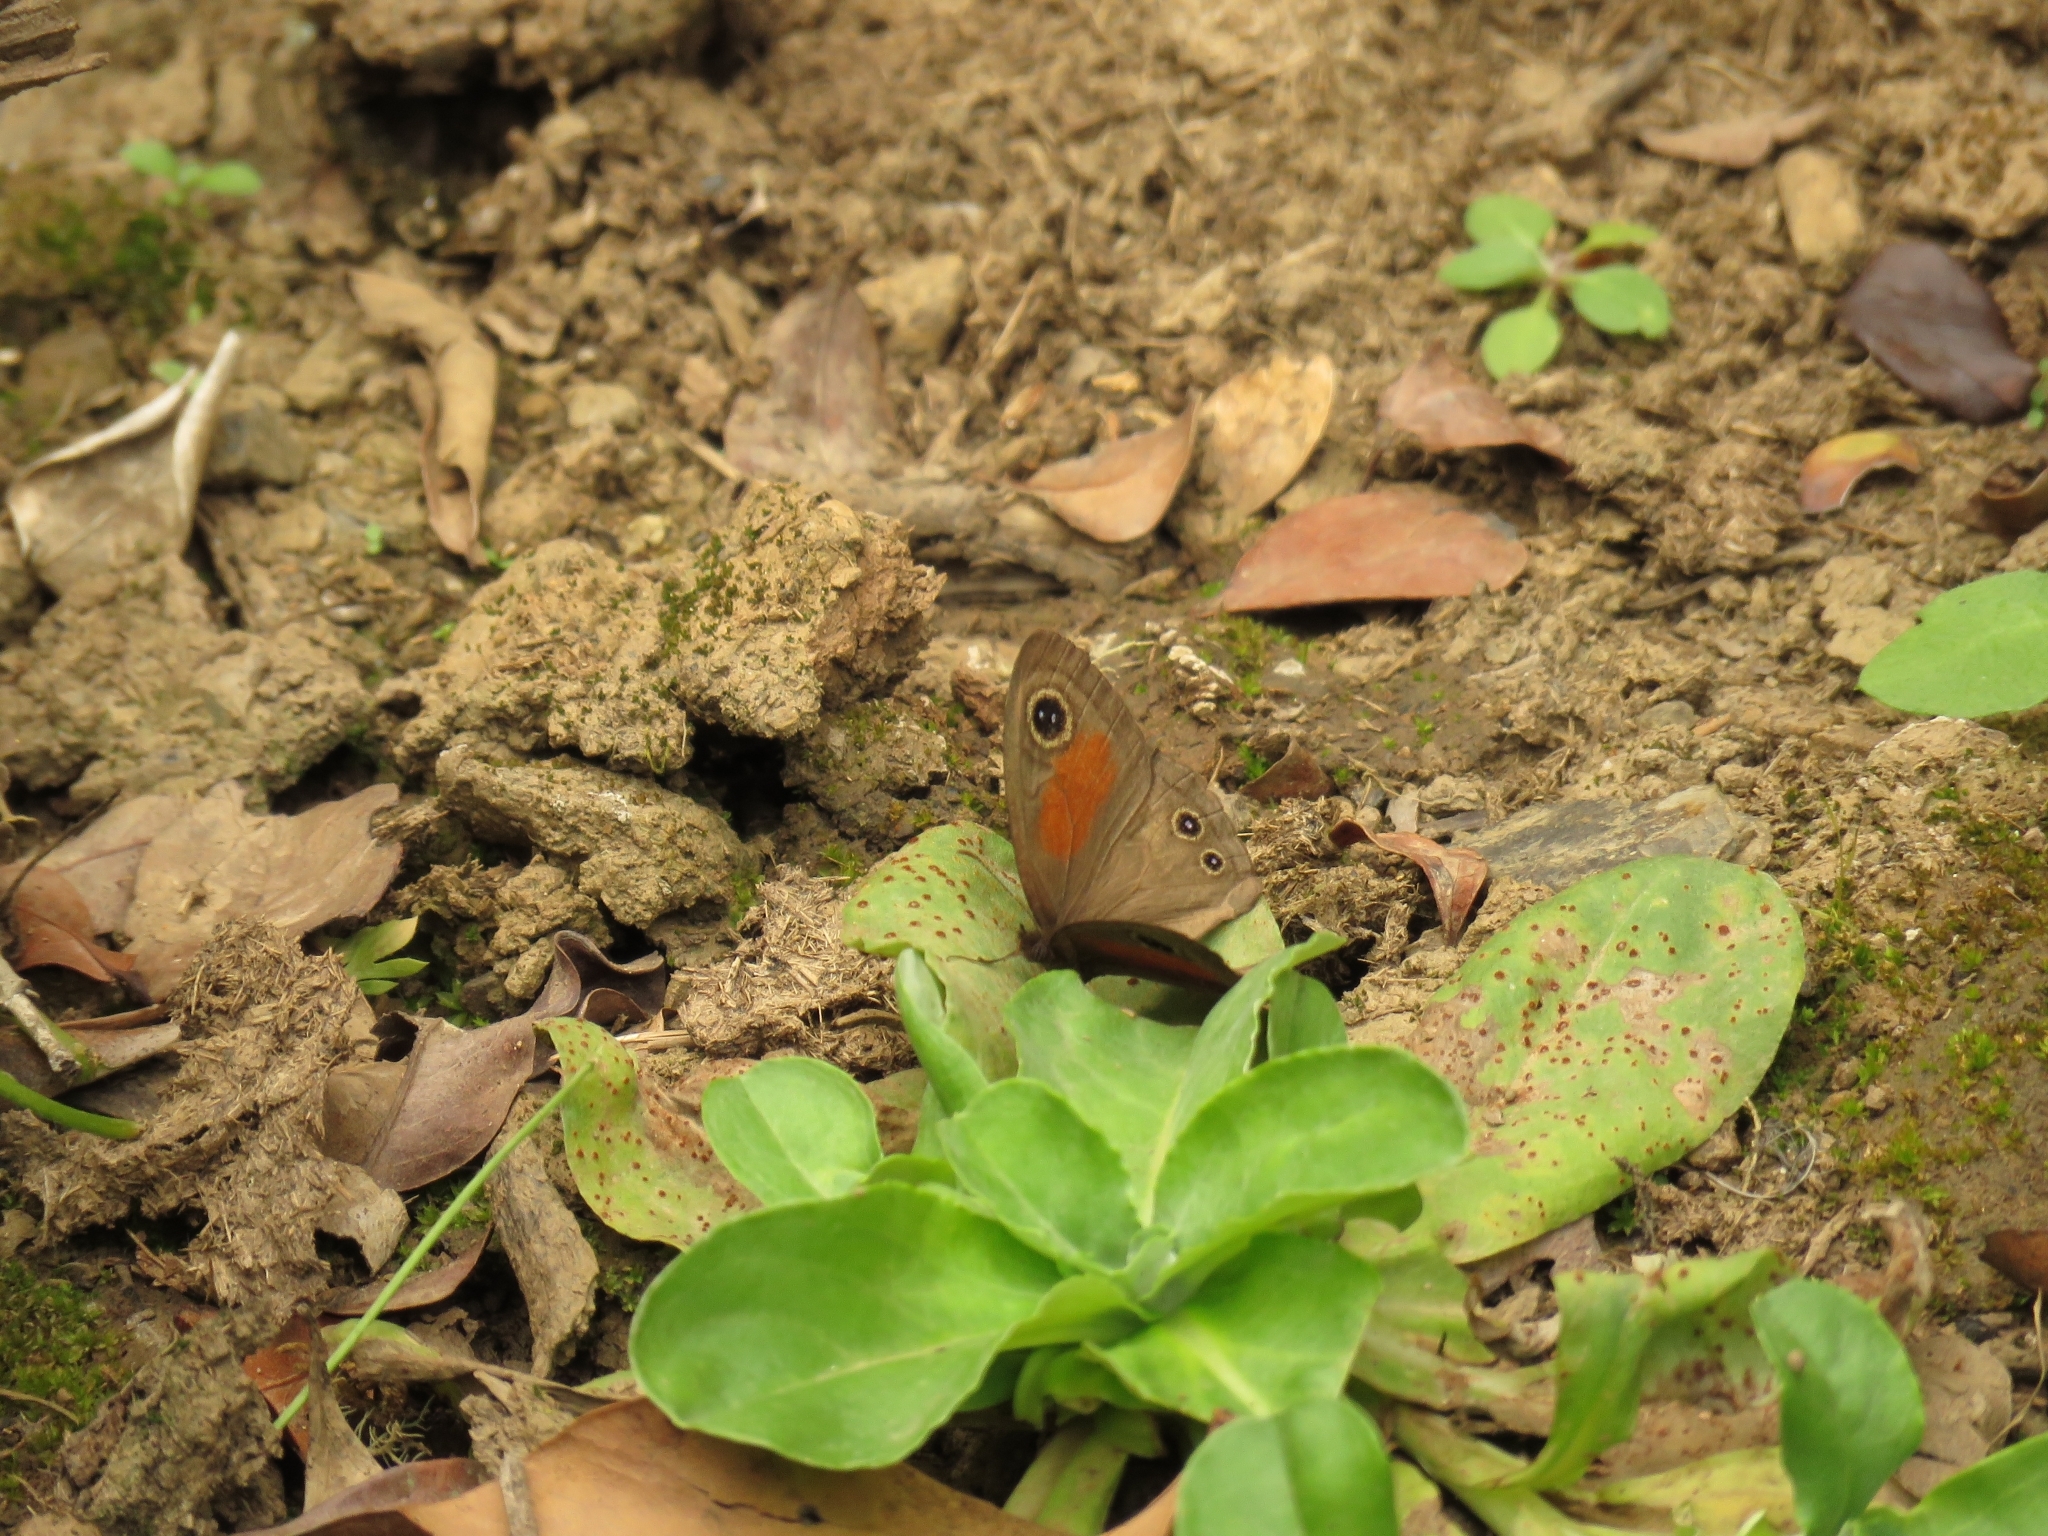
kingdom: Animalia
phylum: Arthropoda
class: Insecta
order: Lepidoptera
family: Nymphalidae
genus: Cassionympha
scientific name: Cassionympha cassius
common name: Rainforest brown
